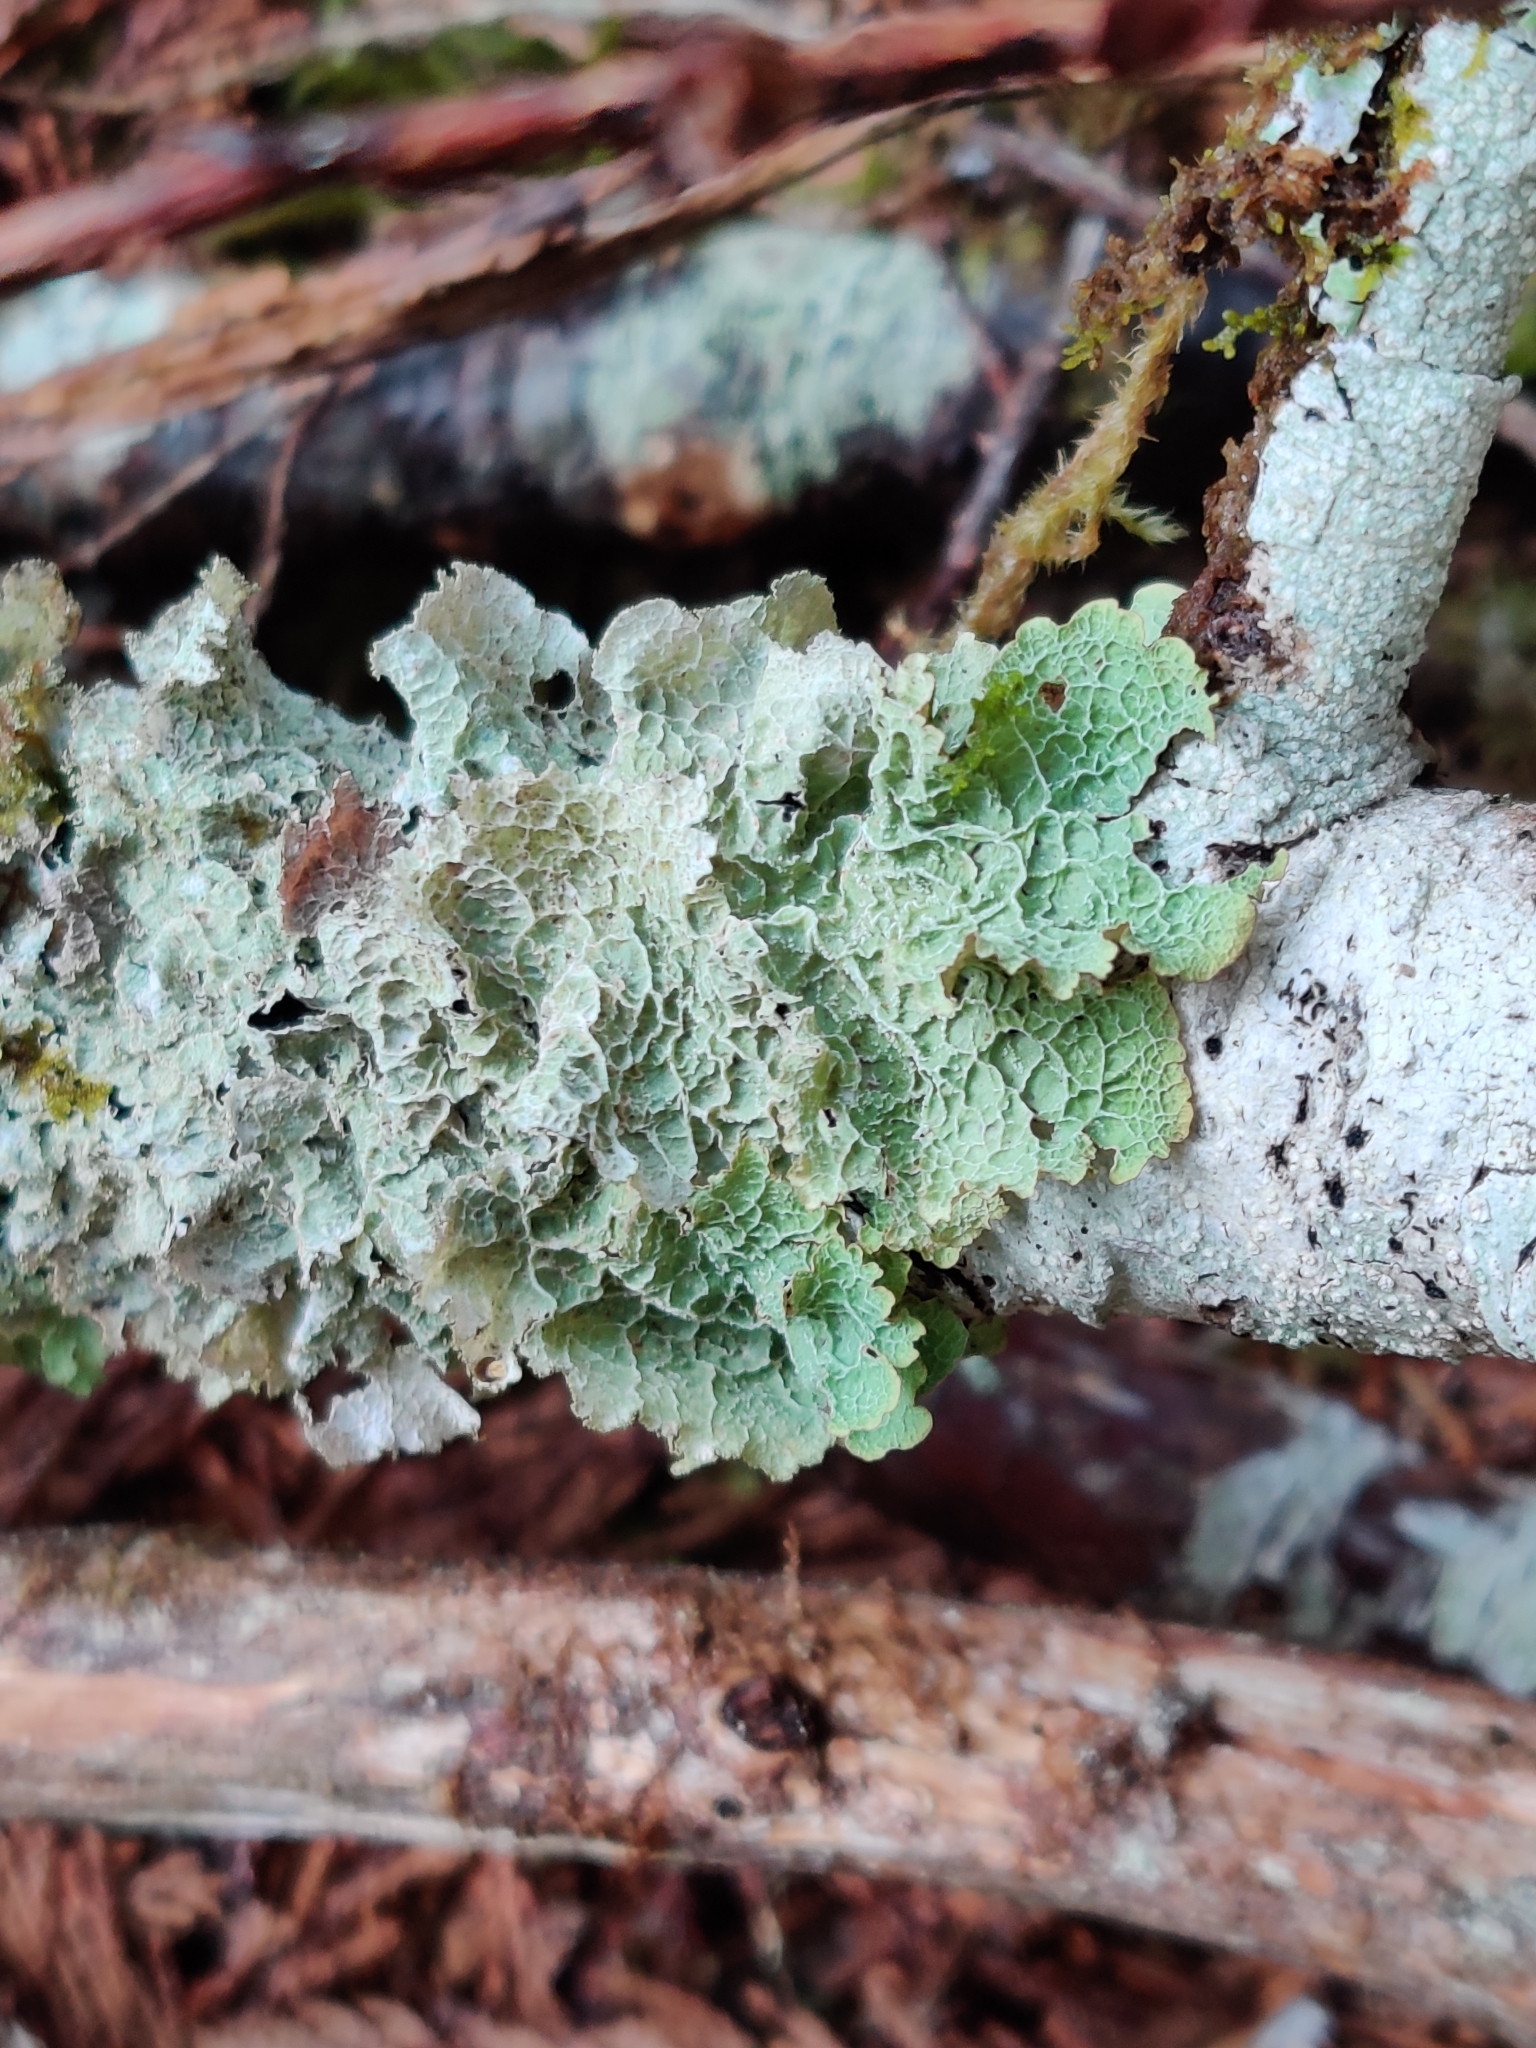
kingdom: Fungi
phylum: Ascomycota
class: Lecanoromycetes
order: Peltigerales
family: Lobariaceae
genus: Lobaria
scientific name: Lobaria oregana
